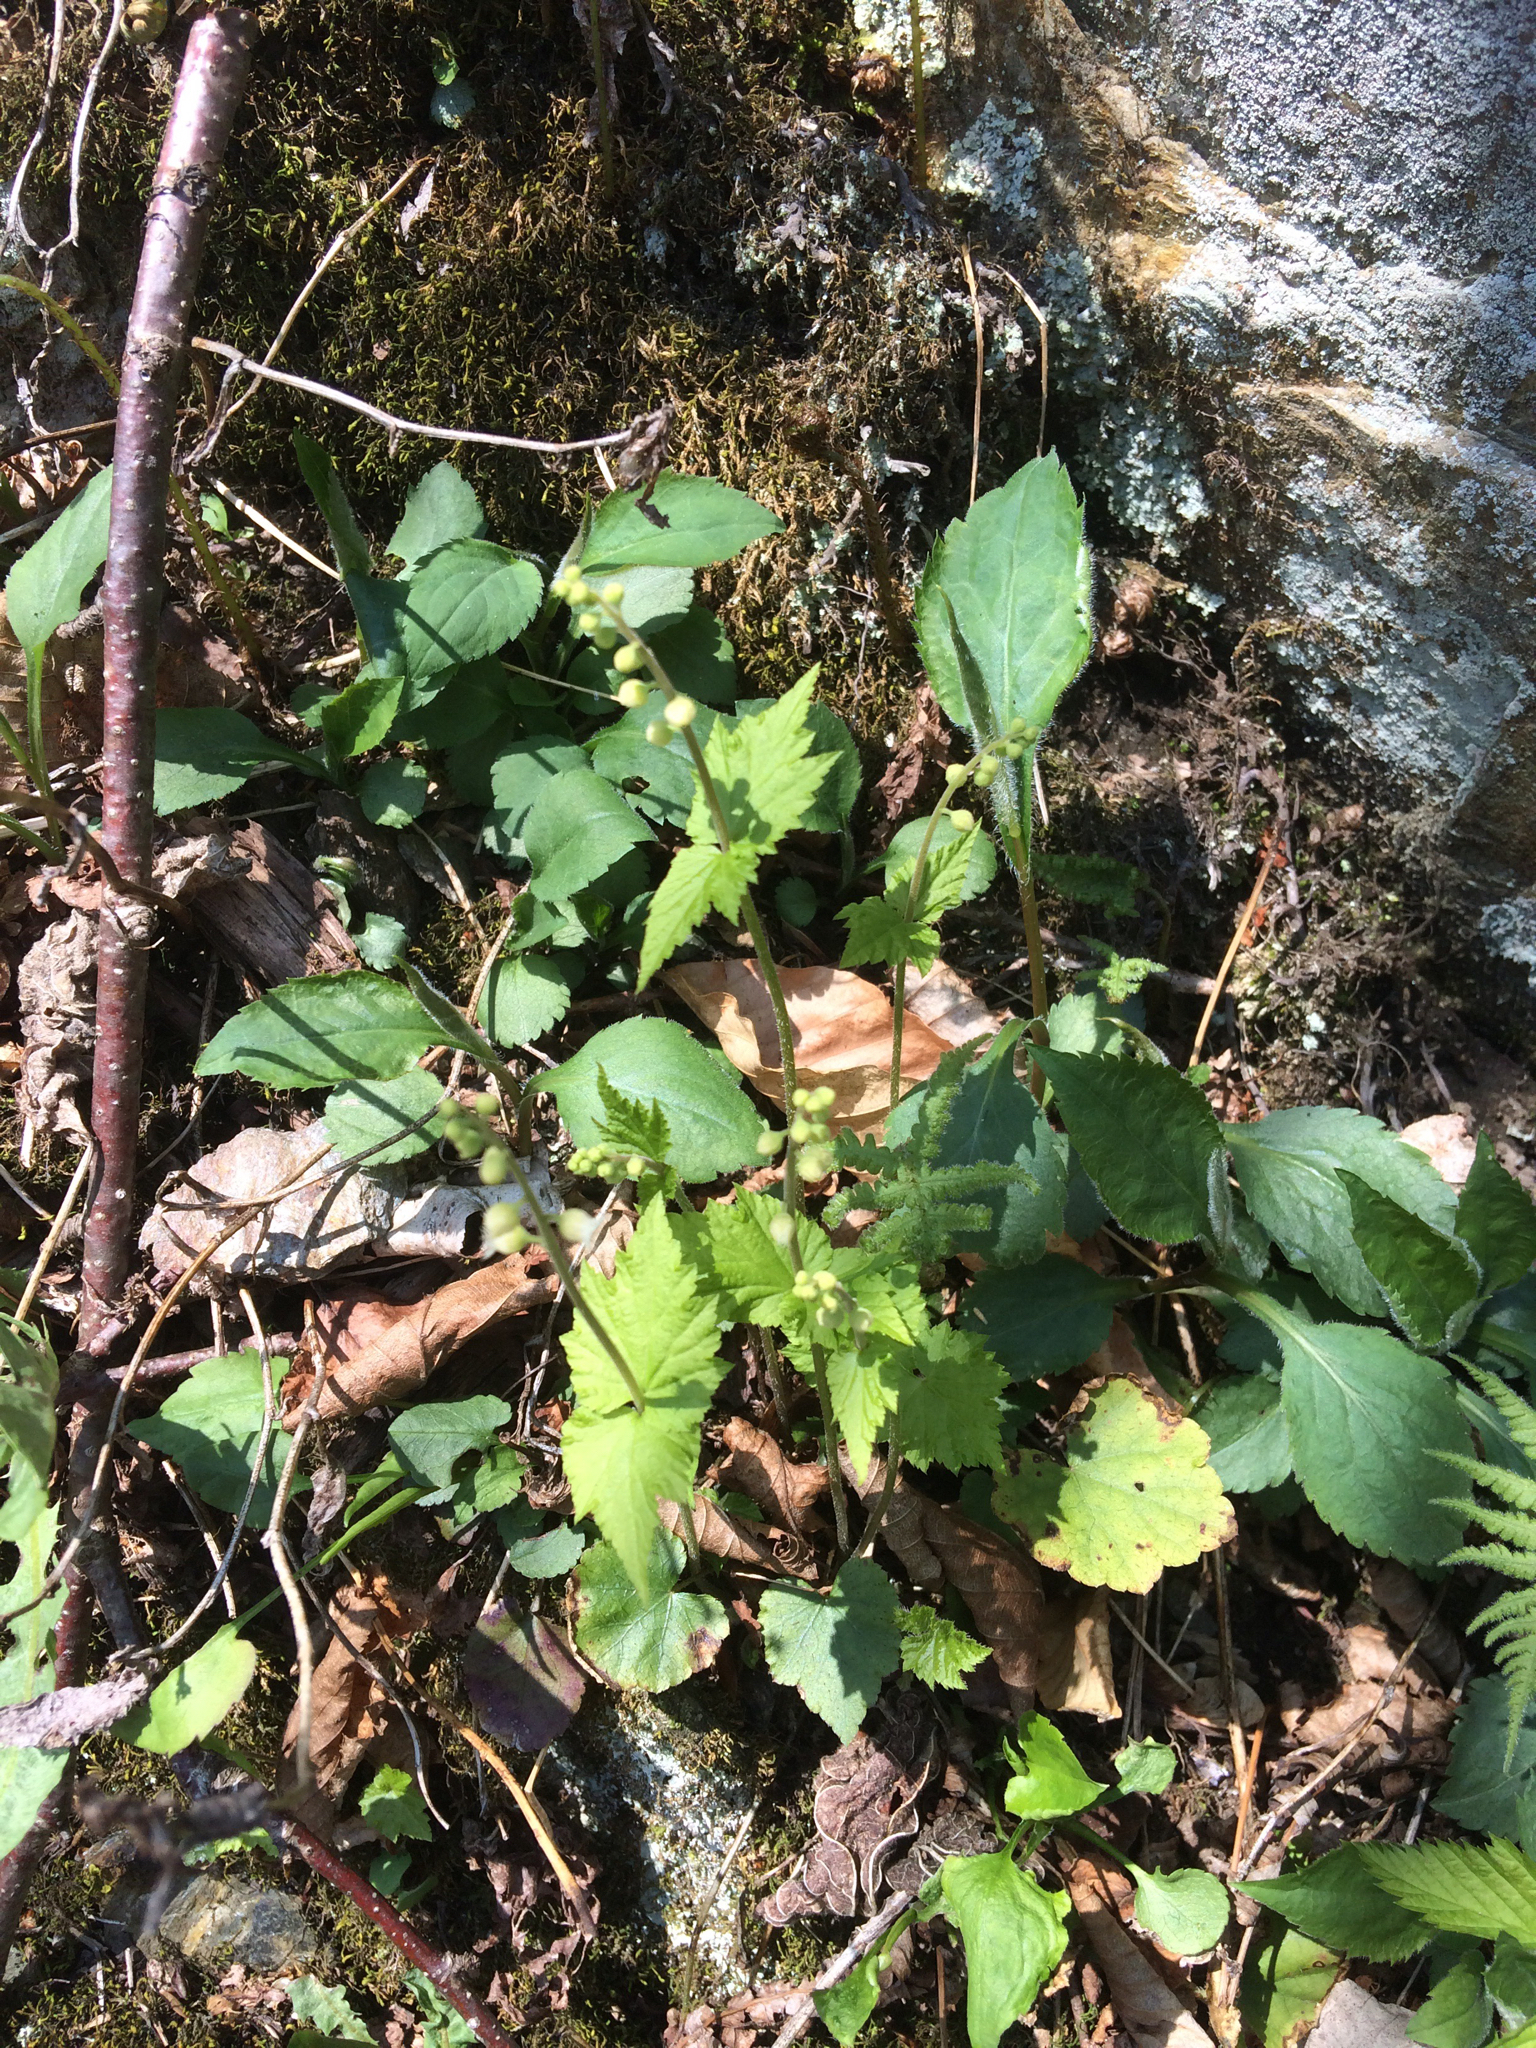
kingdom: Plantae
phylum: Tracheophyta
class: Magnoliopsida
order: Saxifragales
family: Saxifragaceae
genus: Mitella
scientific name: Mitella diphylla
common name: Coolwort
